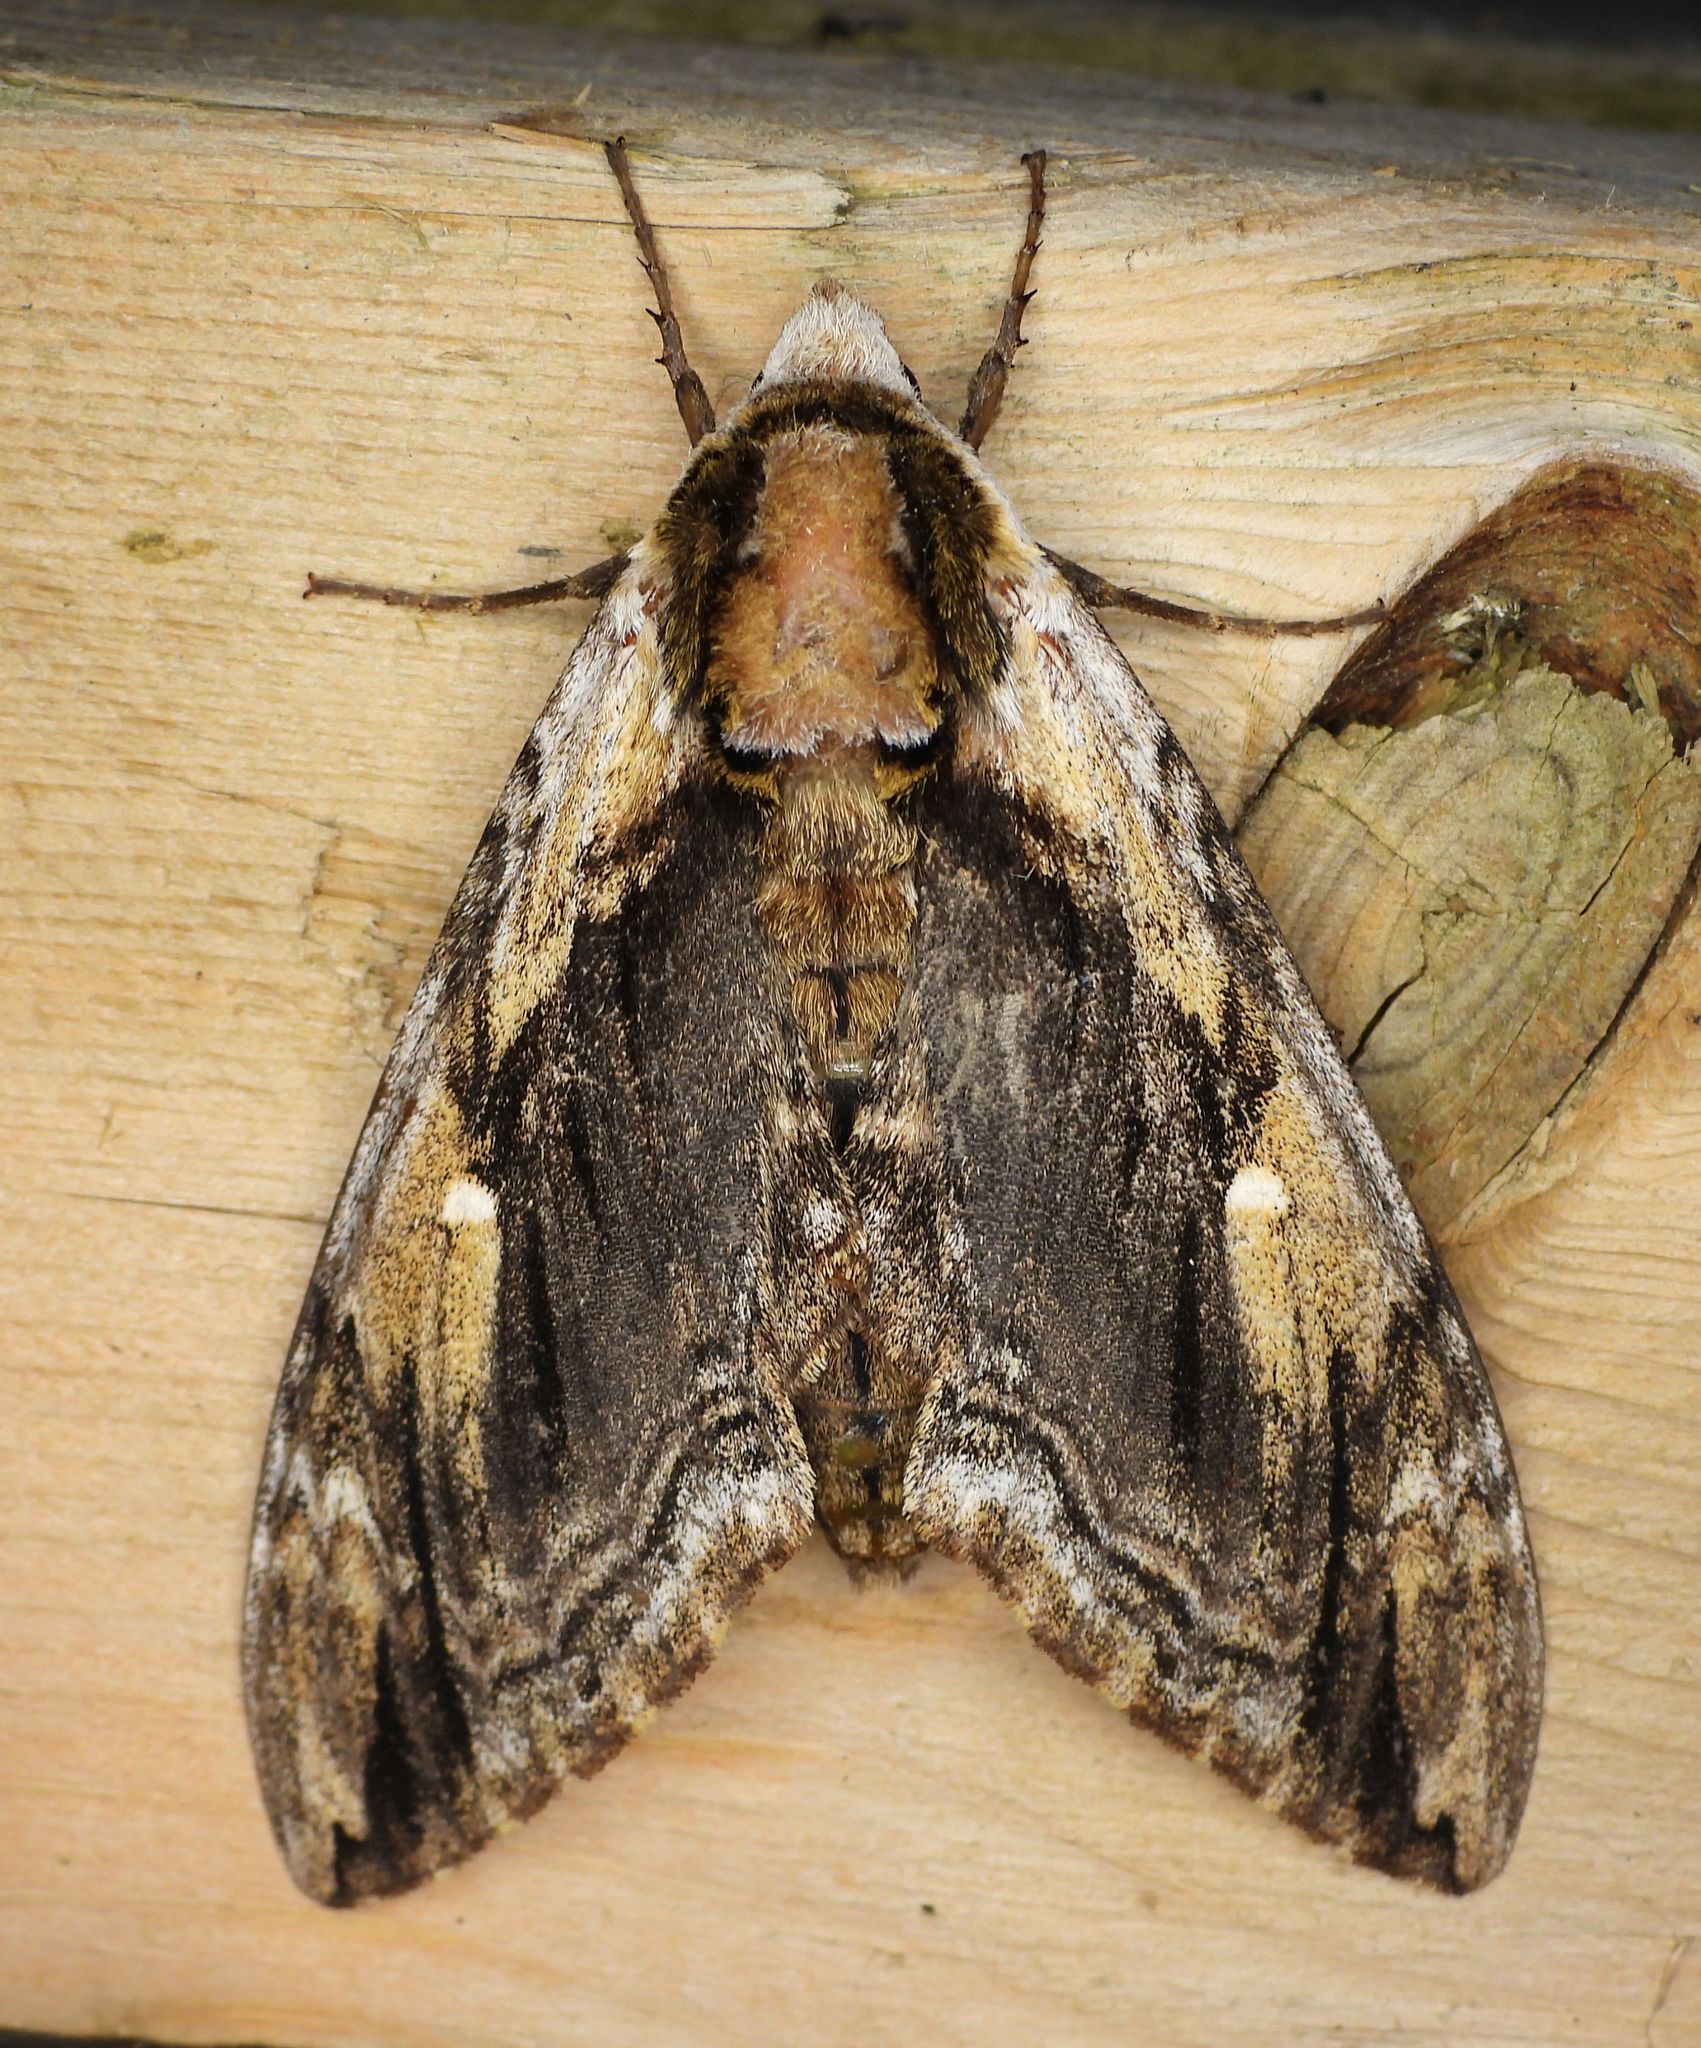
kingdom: Animalia
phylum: Arthropoda
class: Insecta
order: Lepidoptera
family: Sphingidae
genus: Ceratomia
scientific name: Ceratomia amyntor
